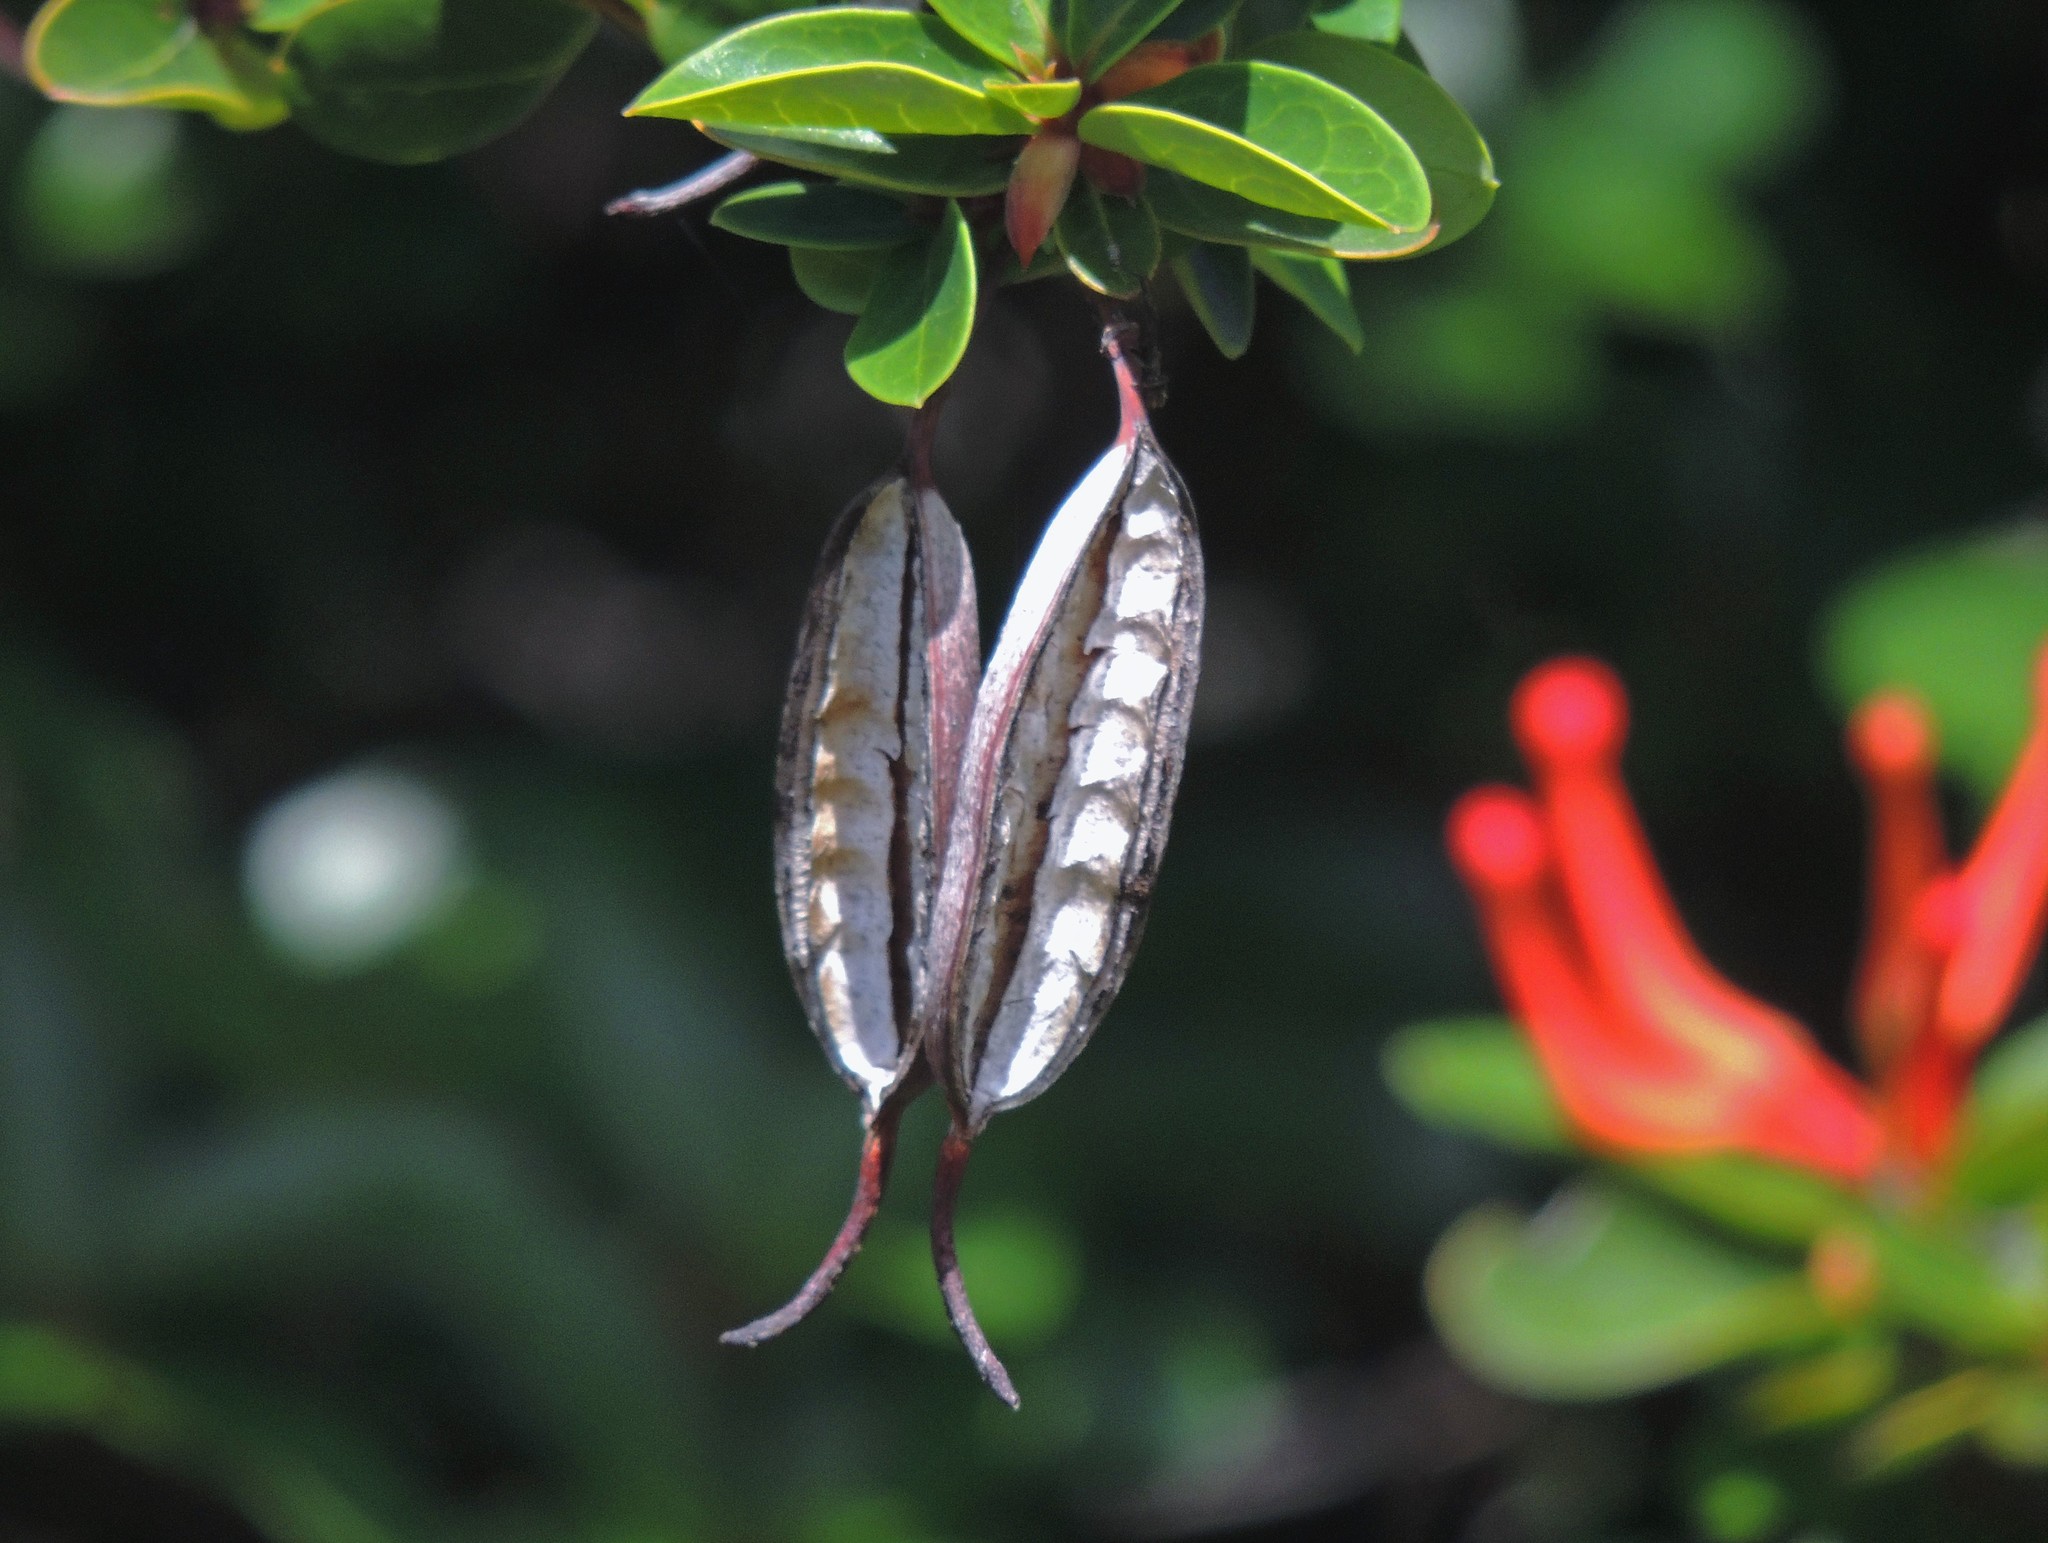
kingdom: Plantae
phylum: Tracheophyta
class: Magnoliopsida
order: Proteales
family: Proteaceae
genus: Embothrium
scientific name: Embothrium coccineum
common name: Chilean firebush
